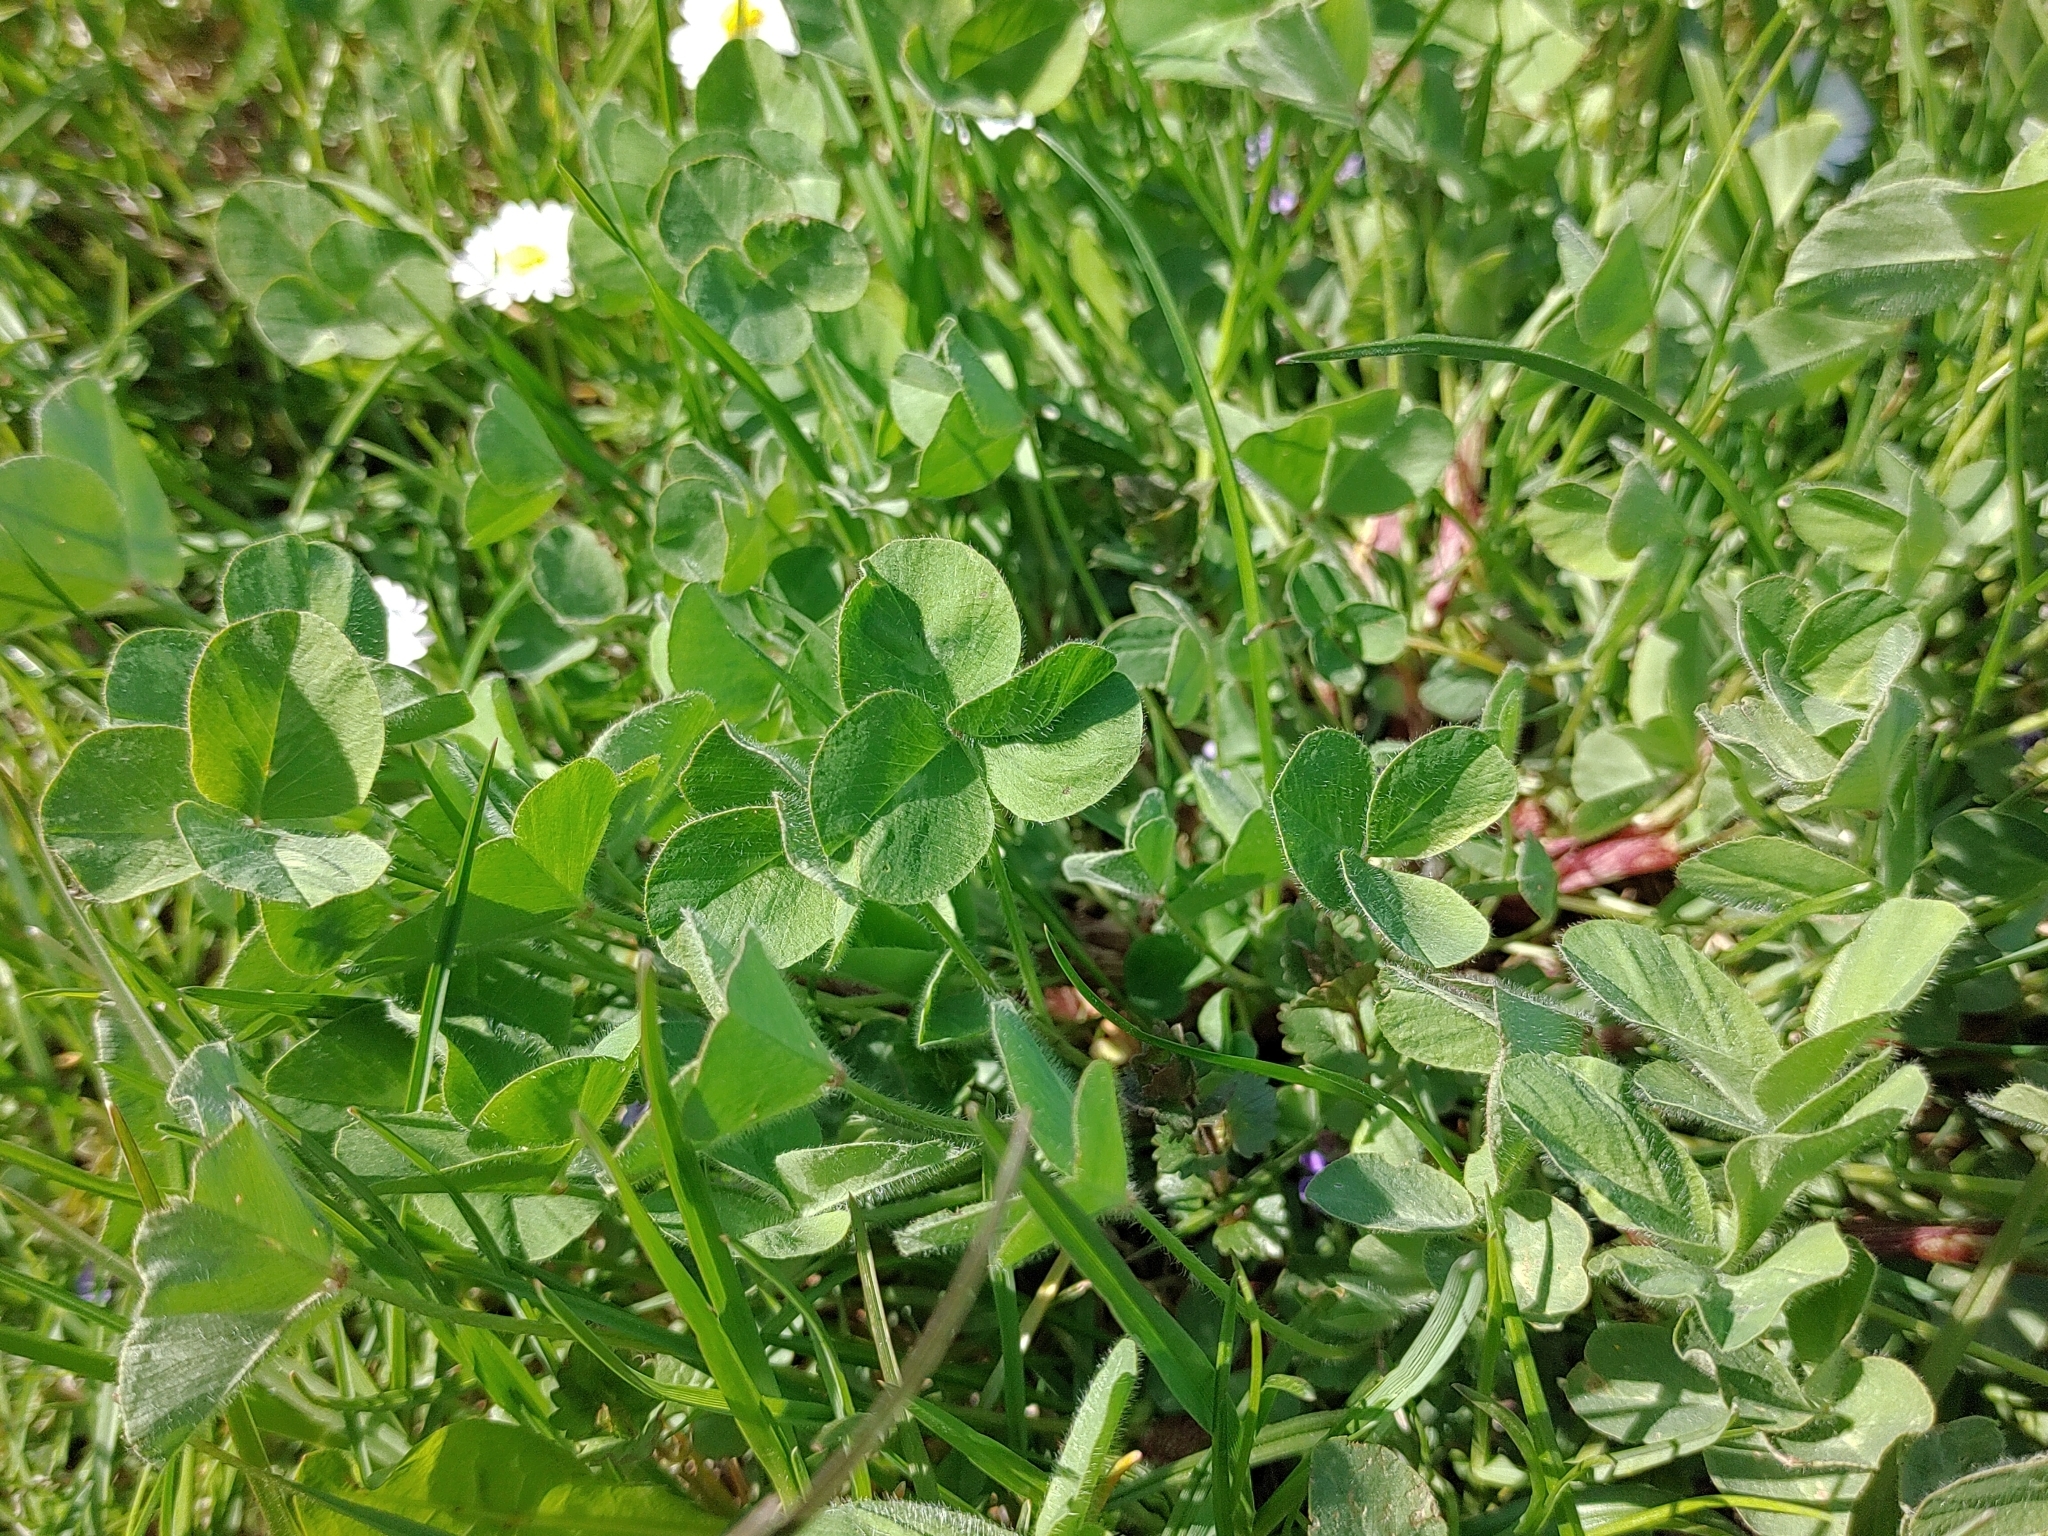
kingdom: Plantae
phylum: Tracheophyta
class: Magnoliopsida
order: Fabales
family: Fabaceae
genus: Trifolium
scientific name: Trifolium pratense
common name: Red clover
